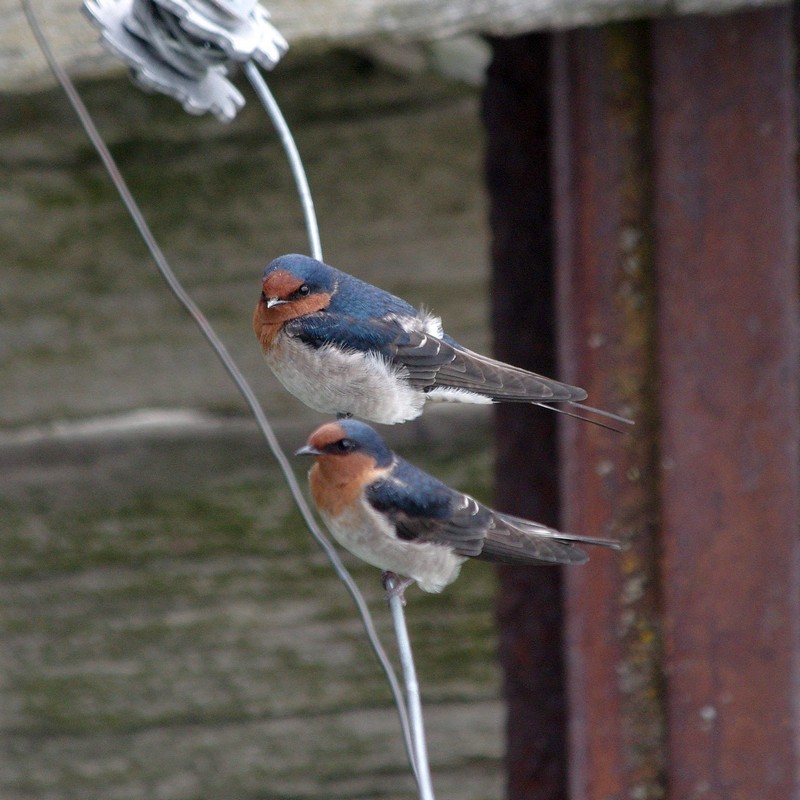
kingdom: Animalia
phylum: Chordata
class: Aves
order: Passeriformes
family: Hirundinidae
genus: Hirundo
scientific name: Hirundo neoxena
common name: Welcome swallow
